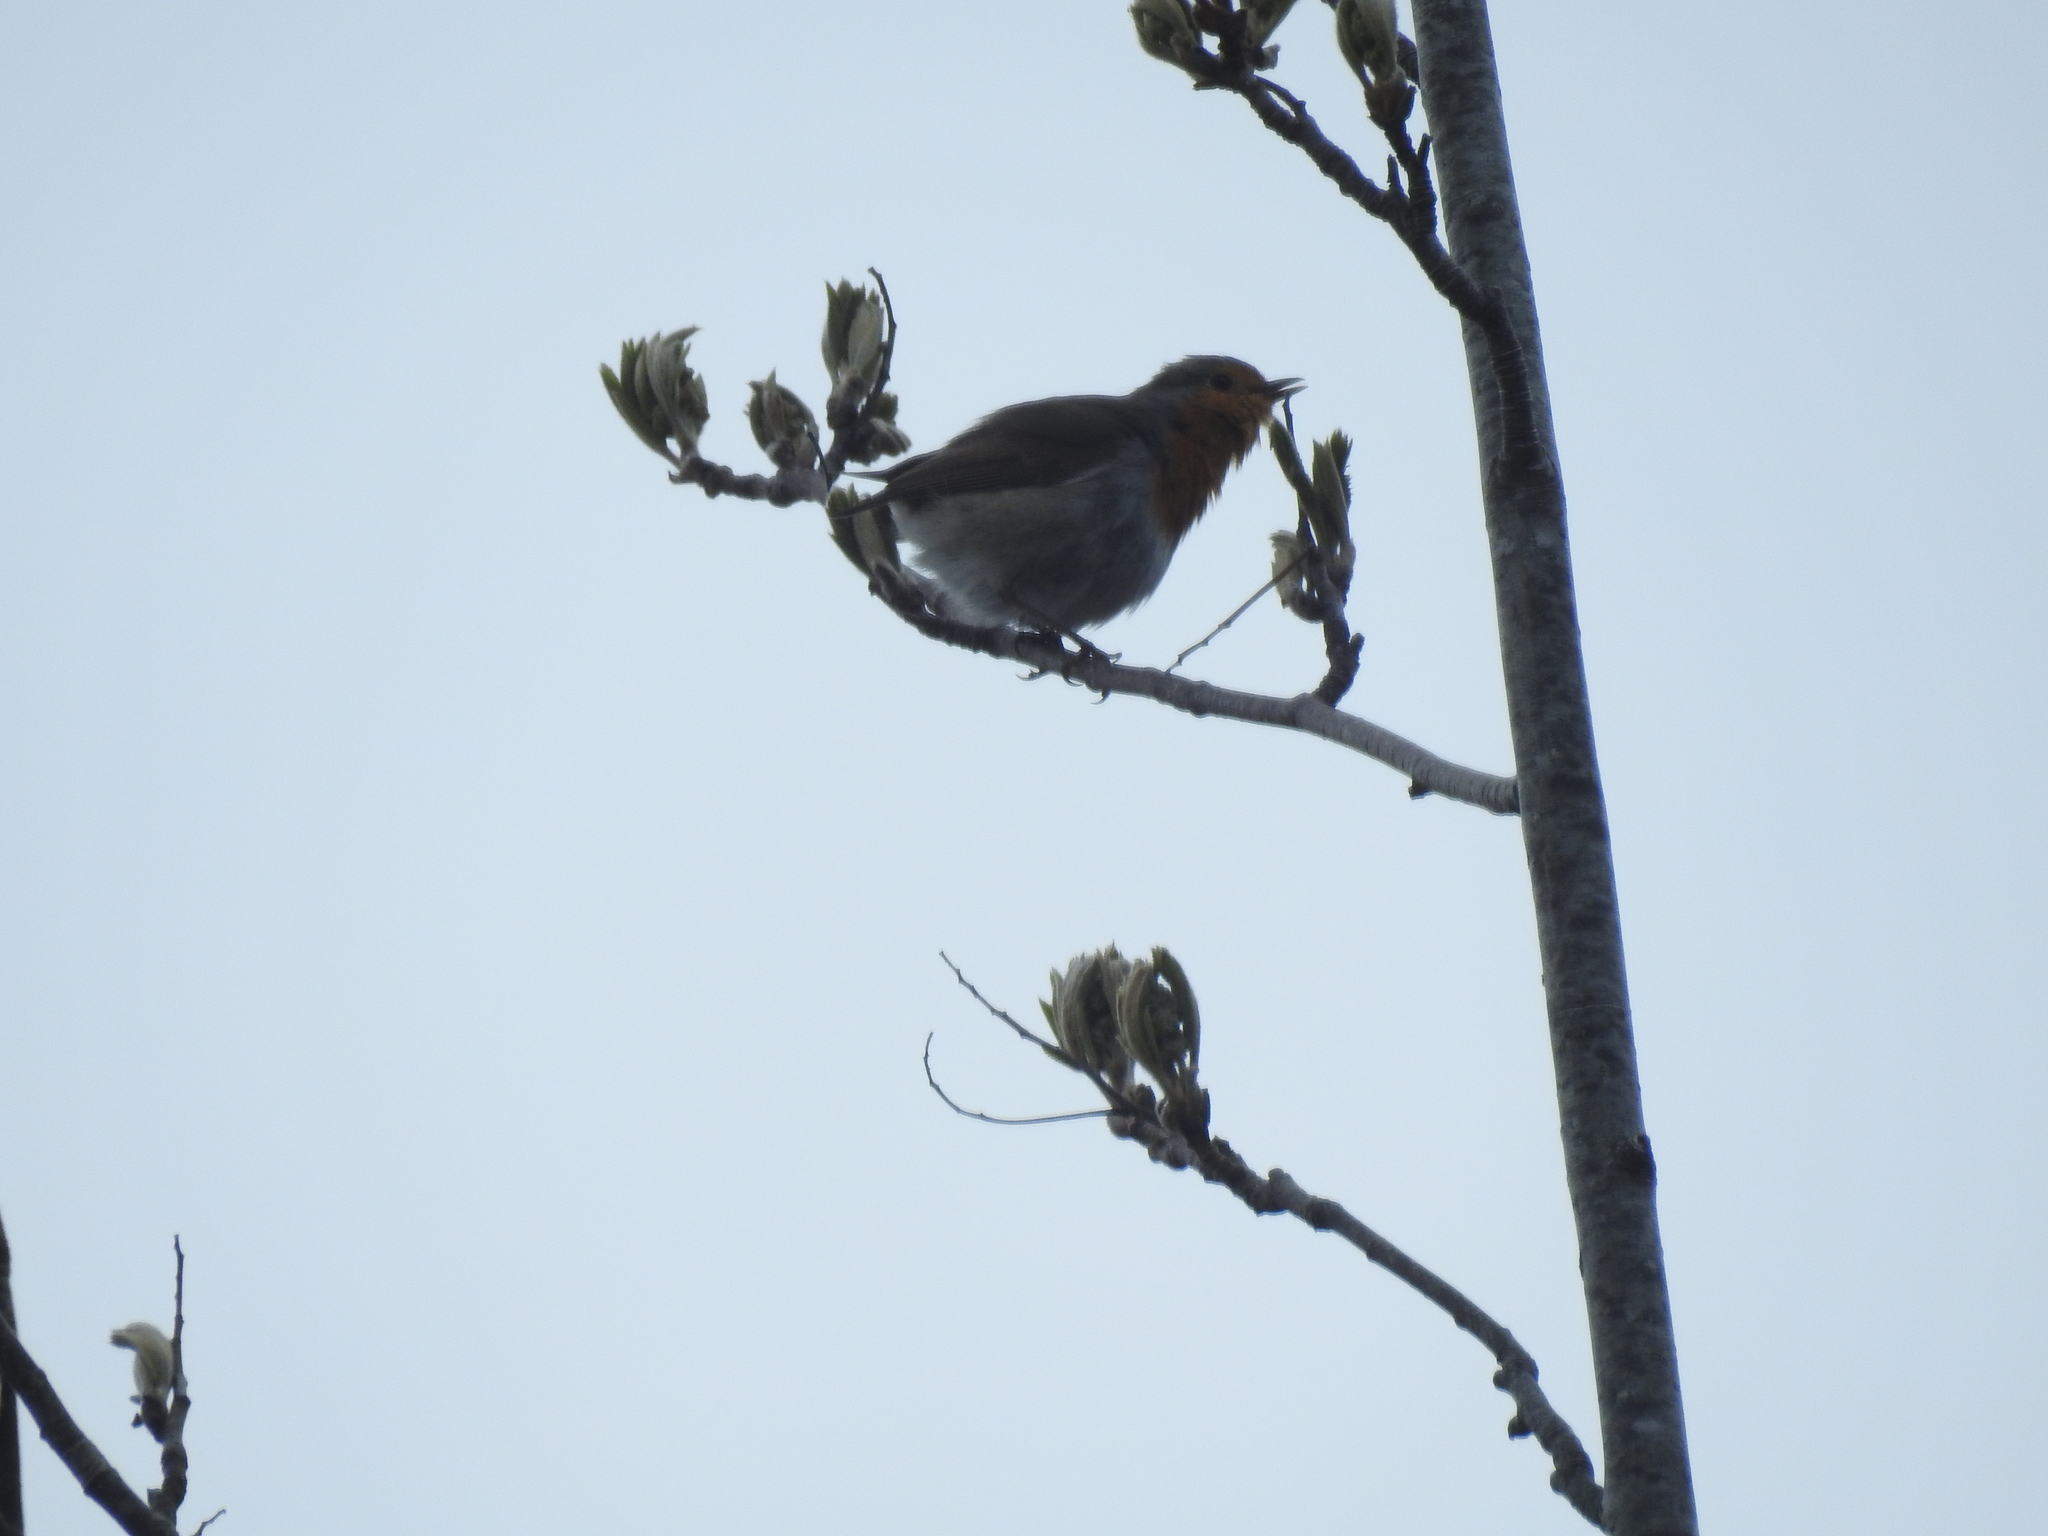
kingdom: Animalia
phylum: Chordata
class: Aves
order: Passeriformes
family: Muscicapidae
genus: Erithacus
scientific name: Erithacus rubecula
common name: European robin
